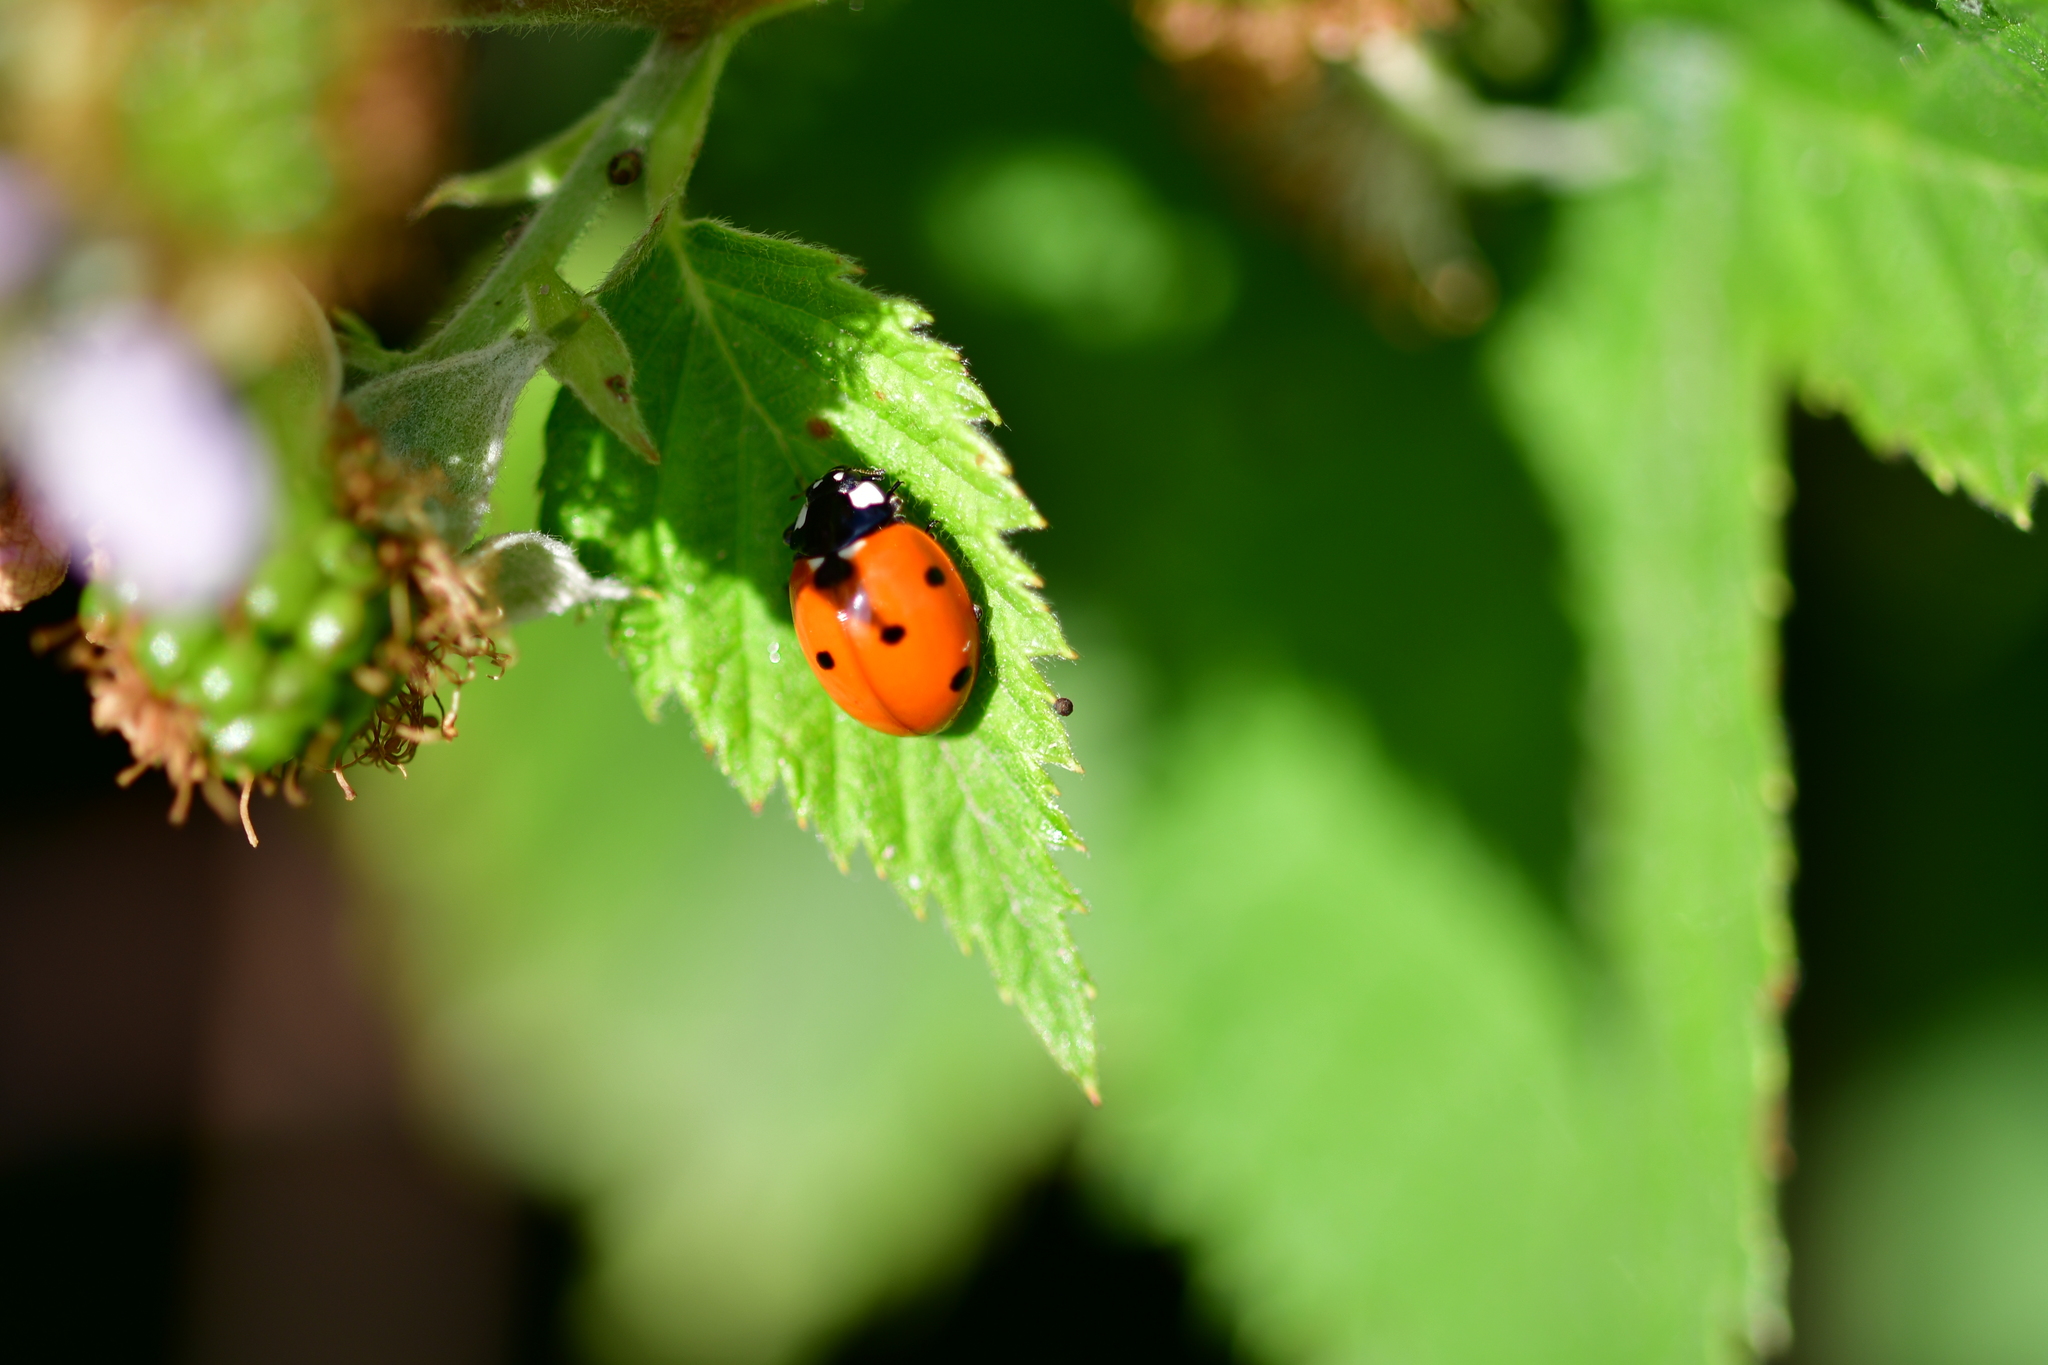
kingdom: Animalia
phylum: Arthropoda
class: Insecta
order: Coleoptera
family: Coccinellidae
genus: Coccinella
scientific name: Coccinella septempunctata
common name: Sevenspotted lady beetle
